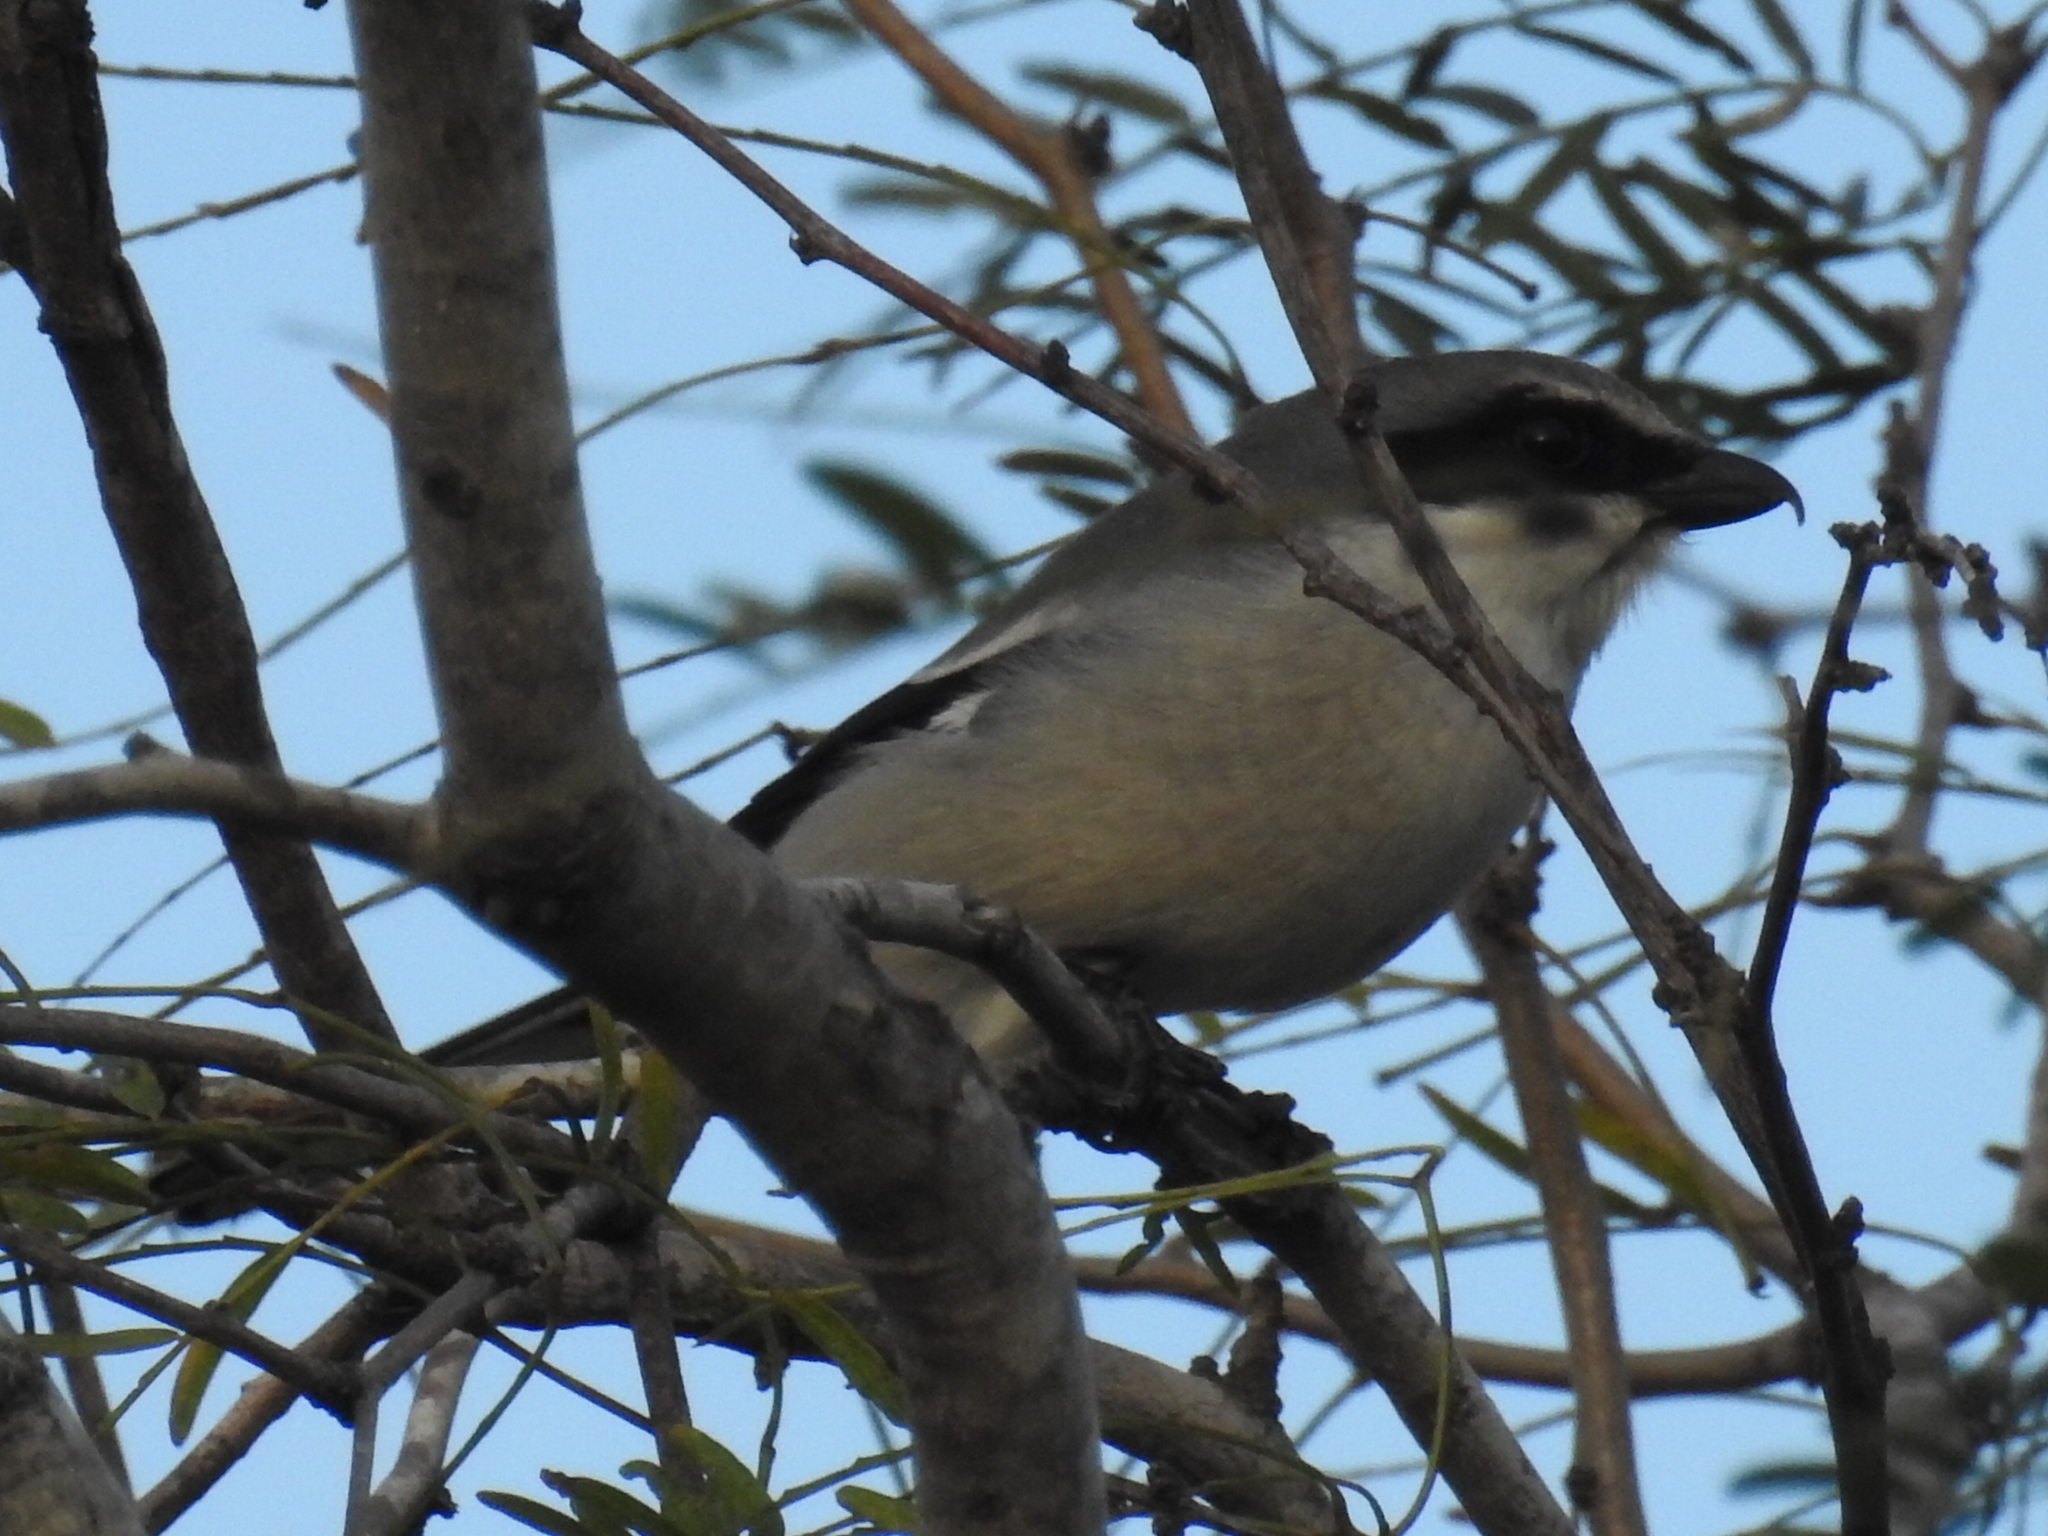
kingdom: Animalia
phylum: Chordata
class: Aves
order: Passeriformes
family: Laniidae
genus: Lanius
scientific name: Lanius ludovicianus
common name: Loggerhead shrike
